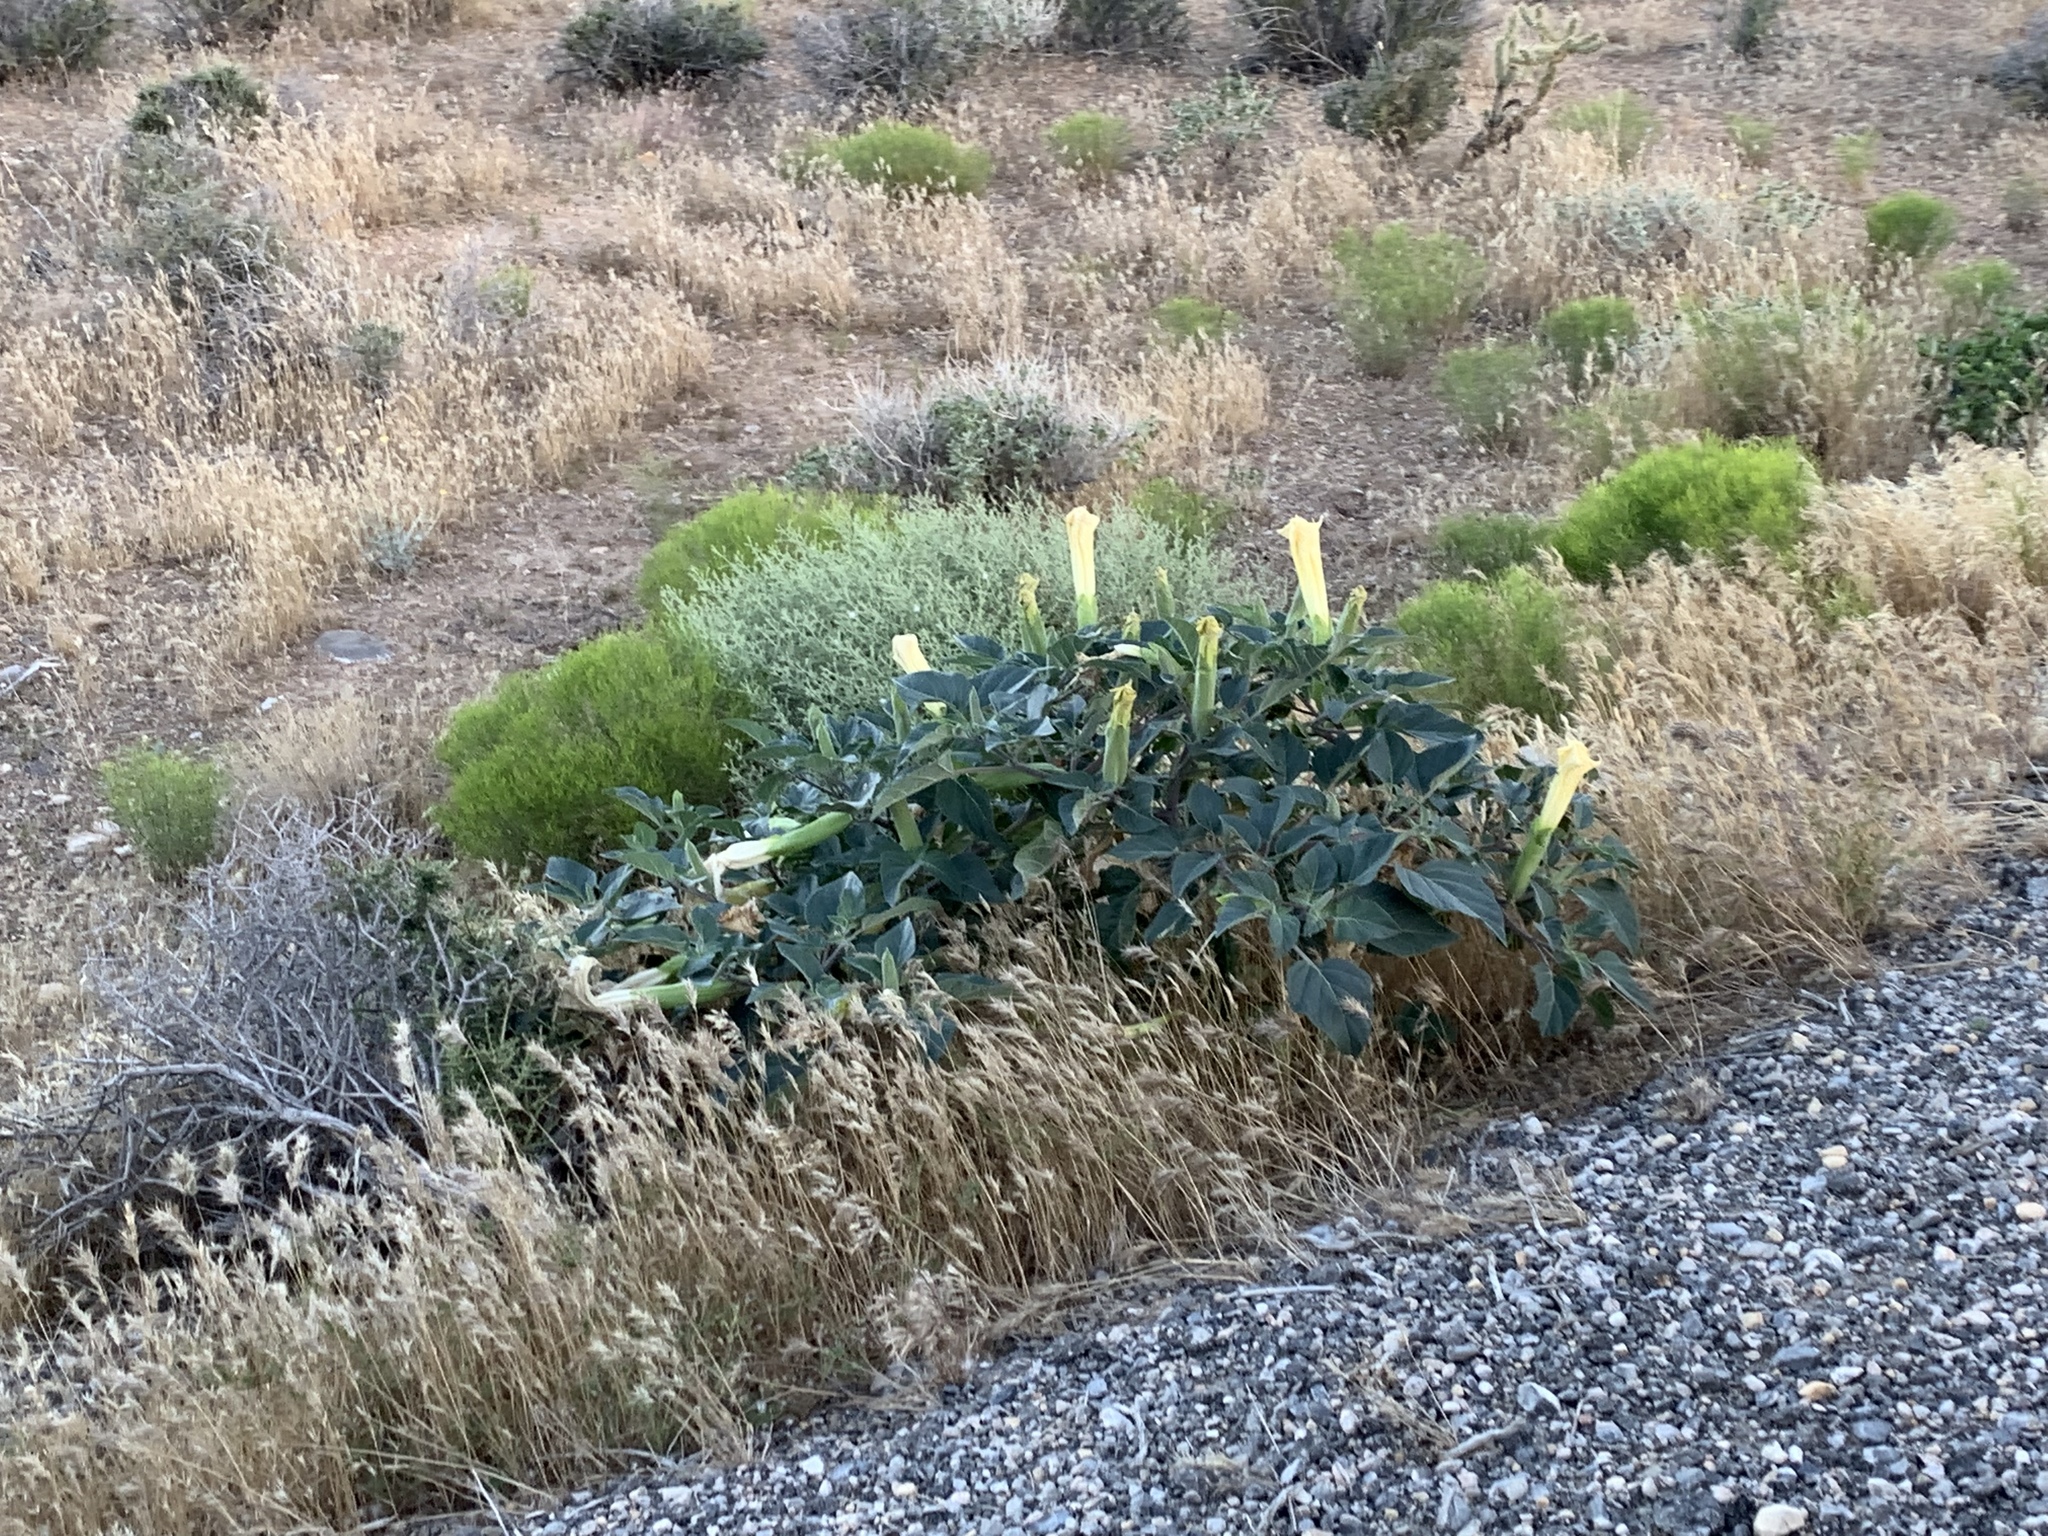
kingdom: Plantae
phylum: Tracheophyta
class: Magnoliopsida
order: Solanales
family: Solanaceae
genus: Datura
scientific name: Datura wrightii
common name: Sacred thorn-apple
